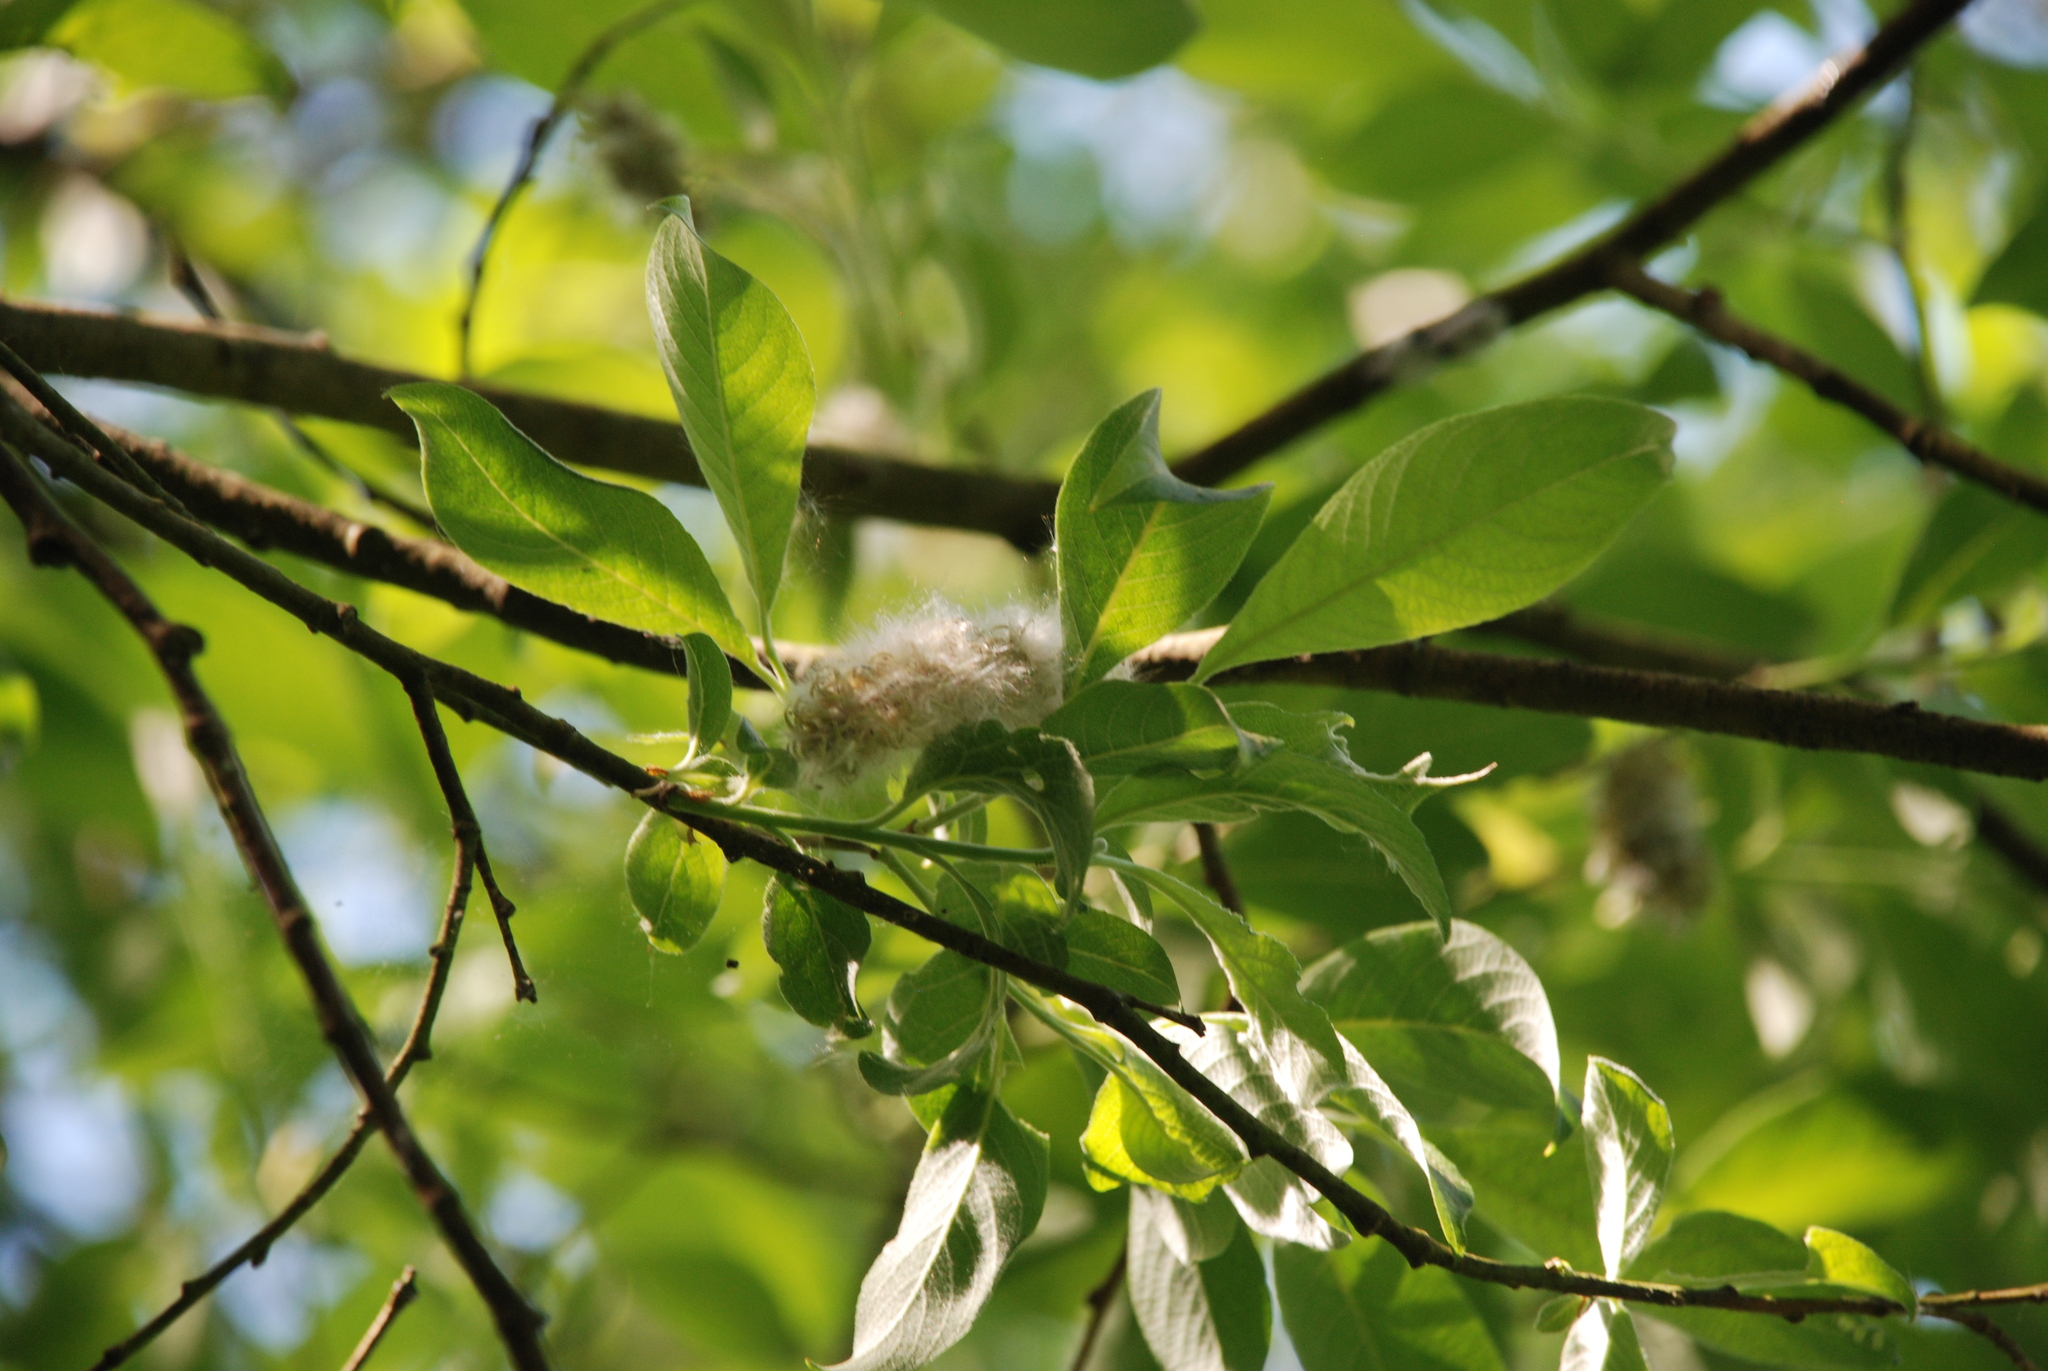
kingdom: Plantae
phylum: Tracheophyta
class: Magnoliopsida
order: Malpighiales
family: Salicaceae
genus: Salix
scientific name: Salix cinerea
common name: Common sallow
